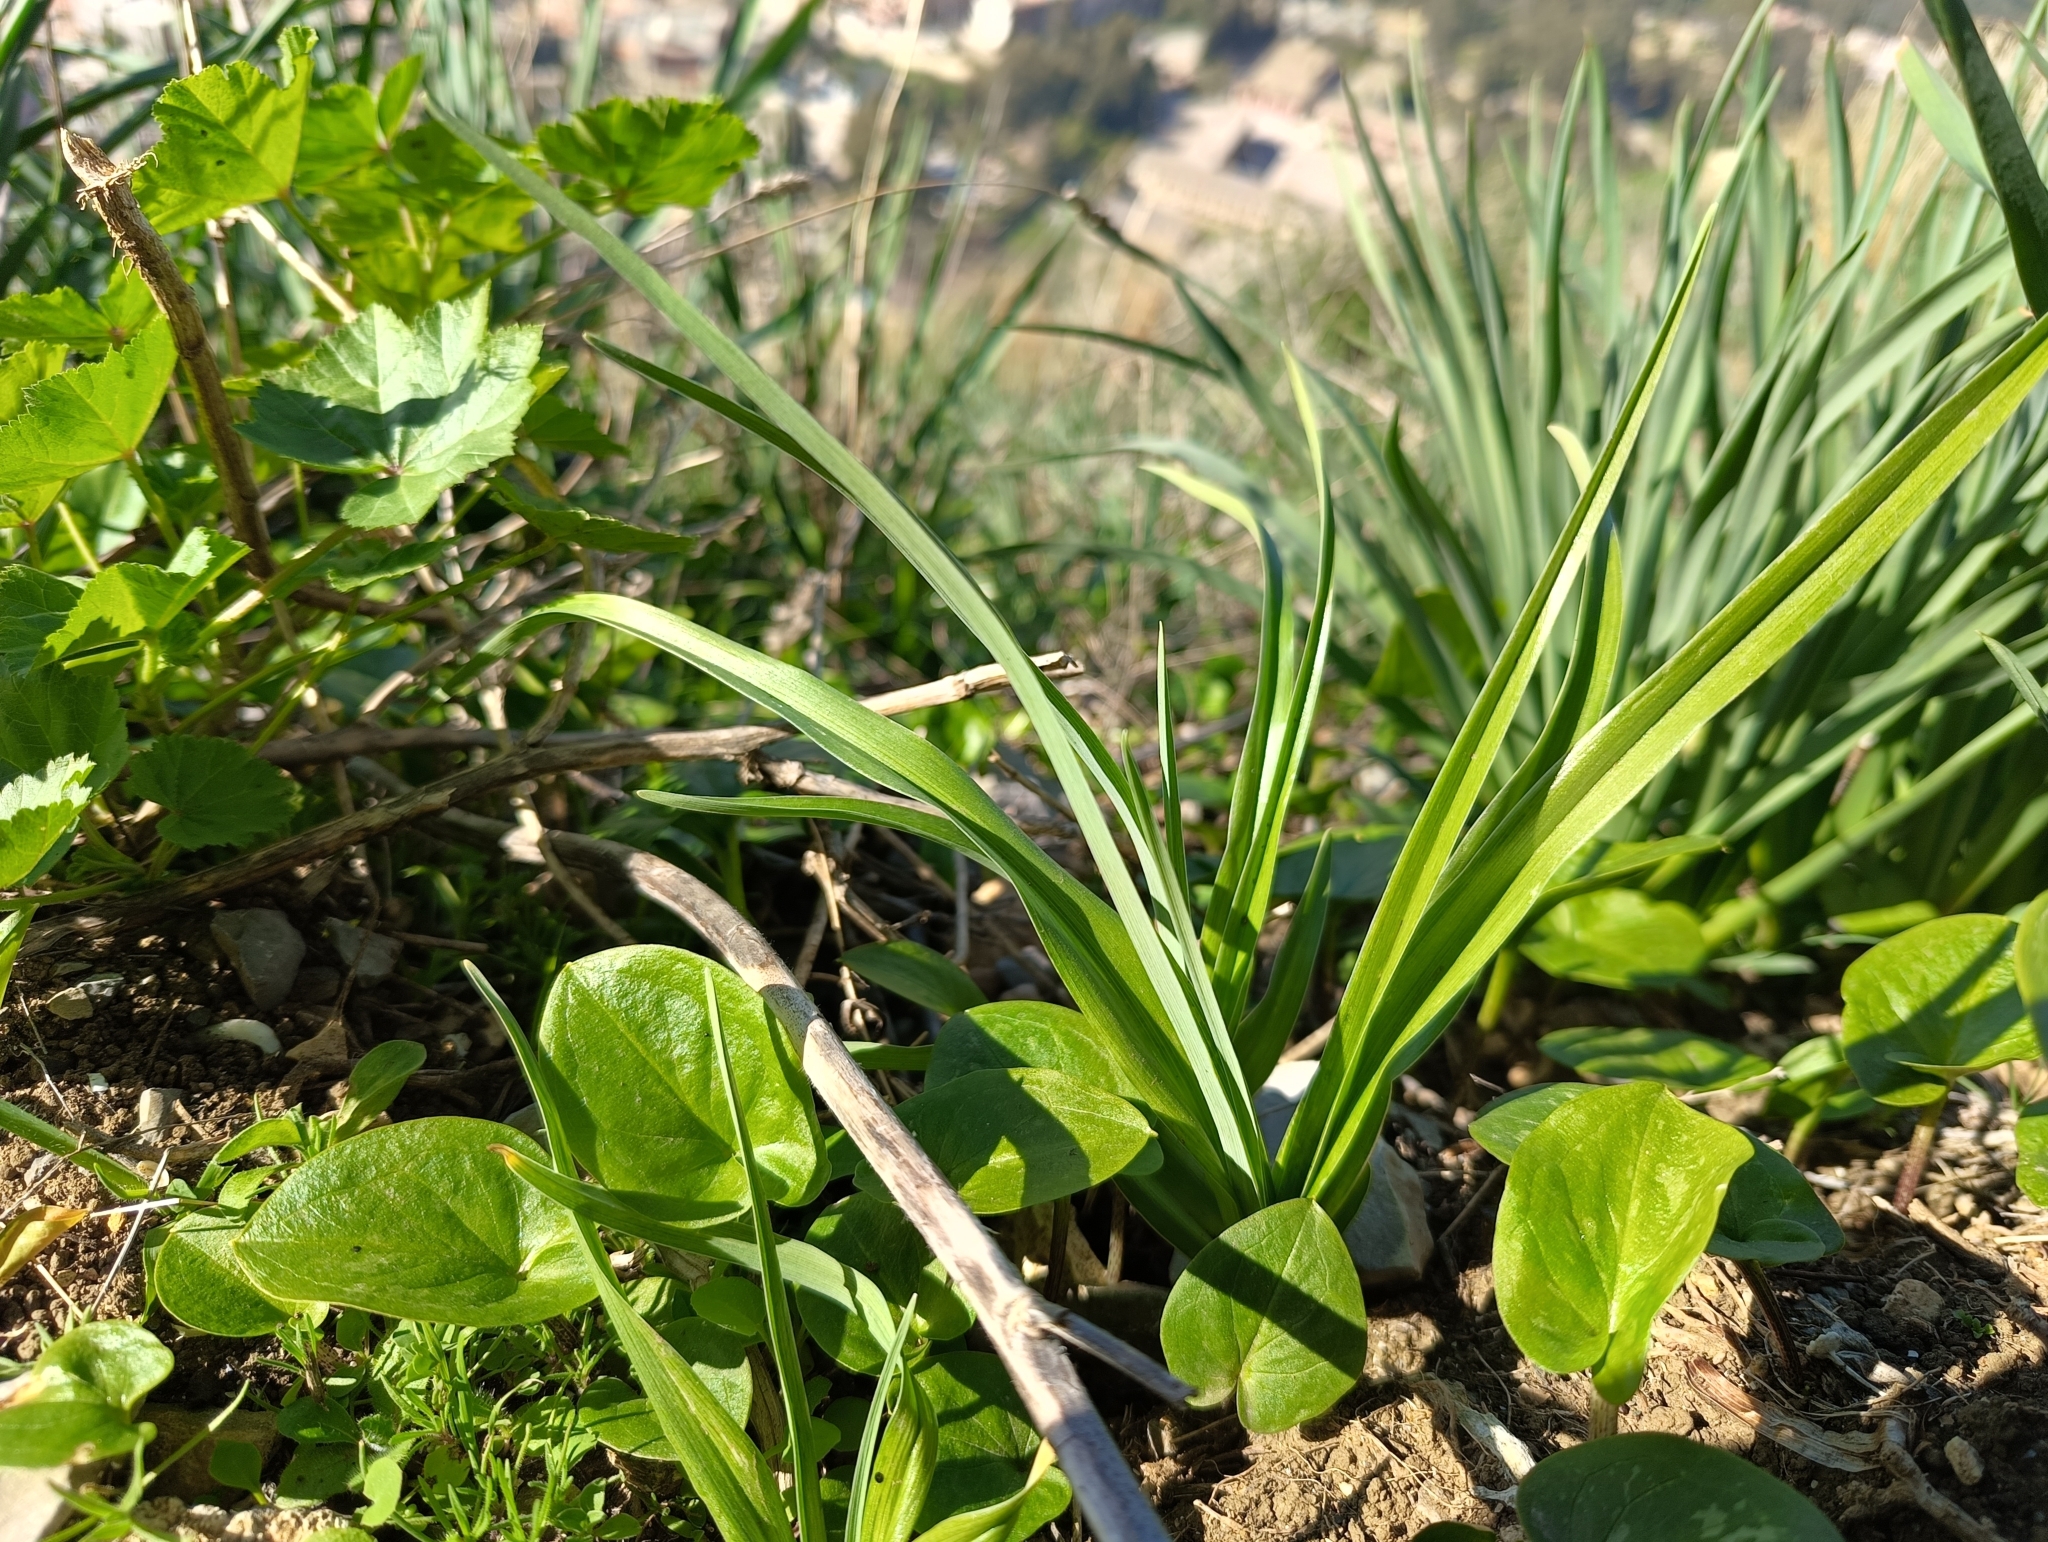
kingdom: Plantae
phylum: Tracheophyta
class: Liliopsida
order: Asparagales
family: Iridaceae
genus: Iris
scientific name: Iris planifolia
